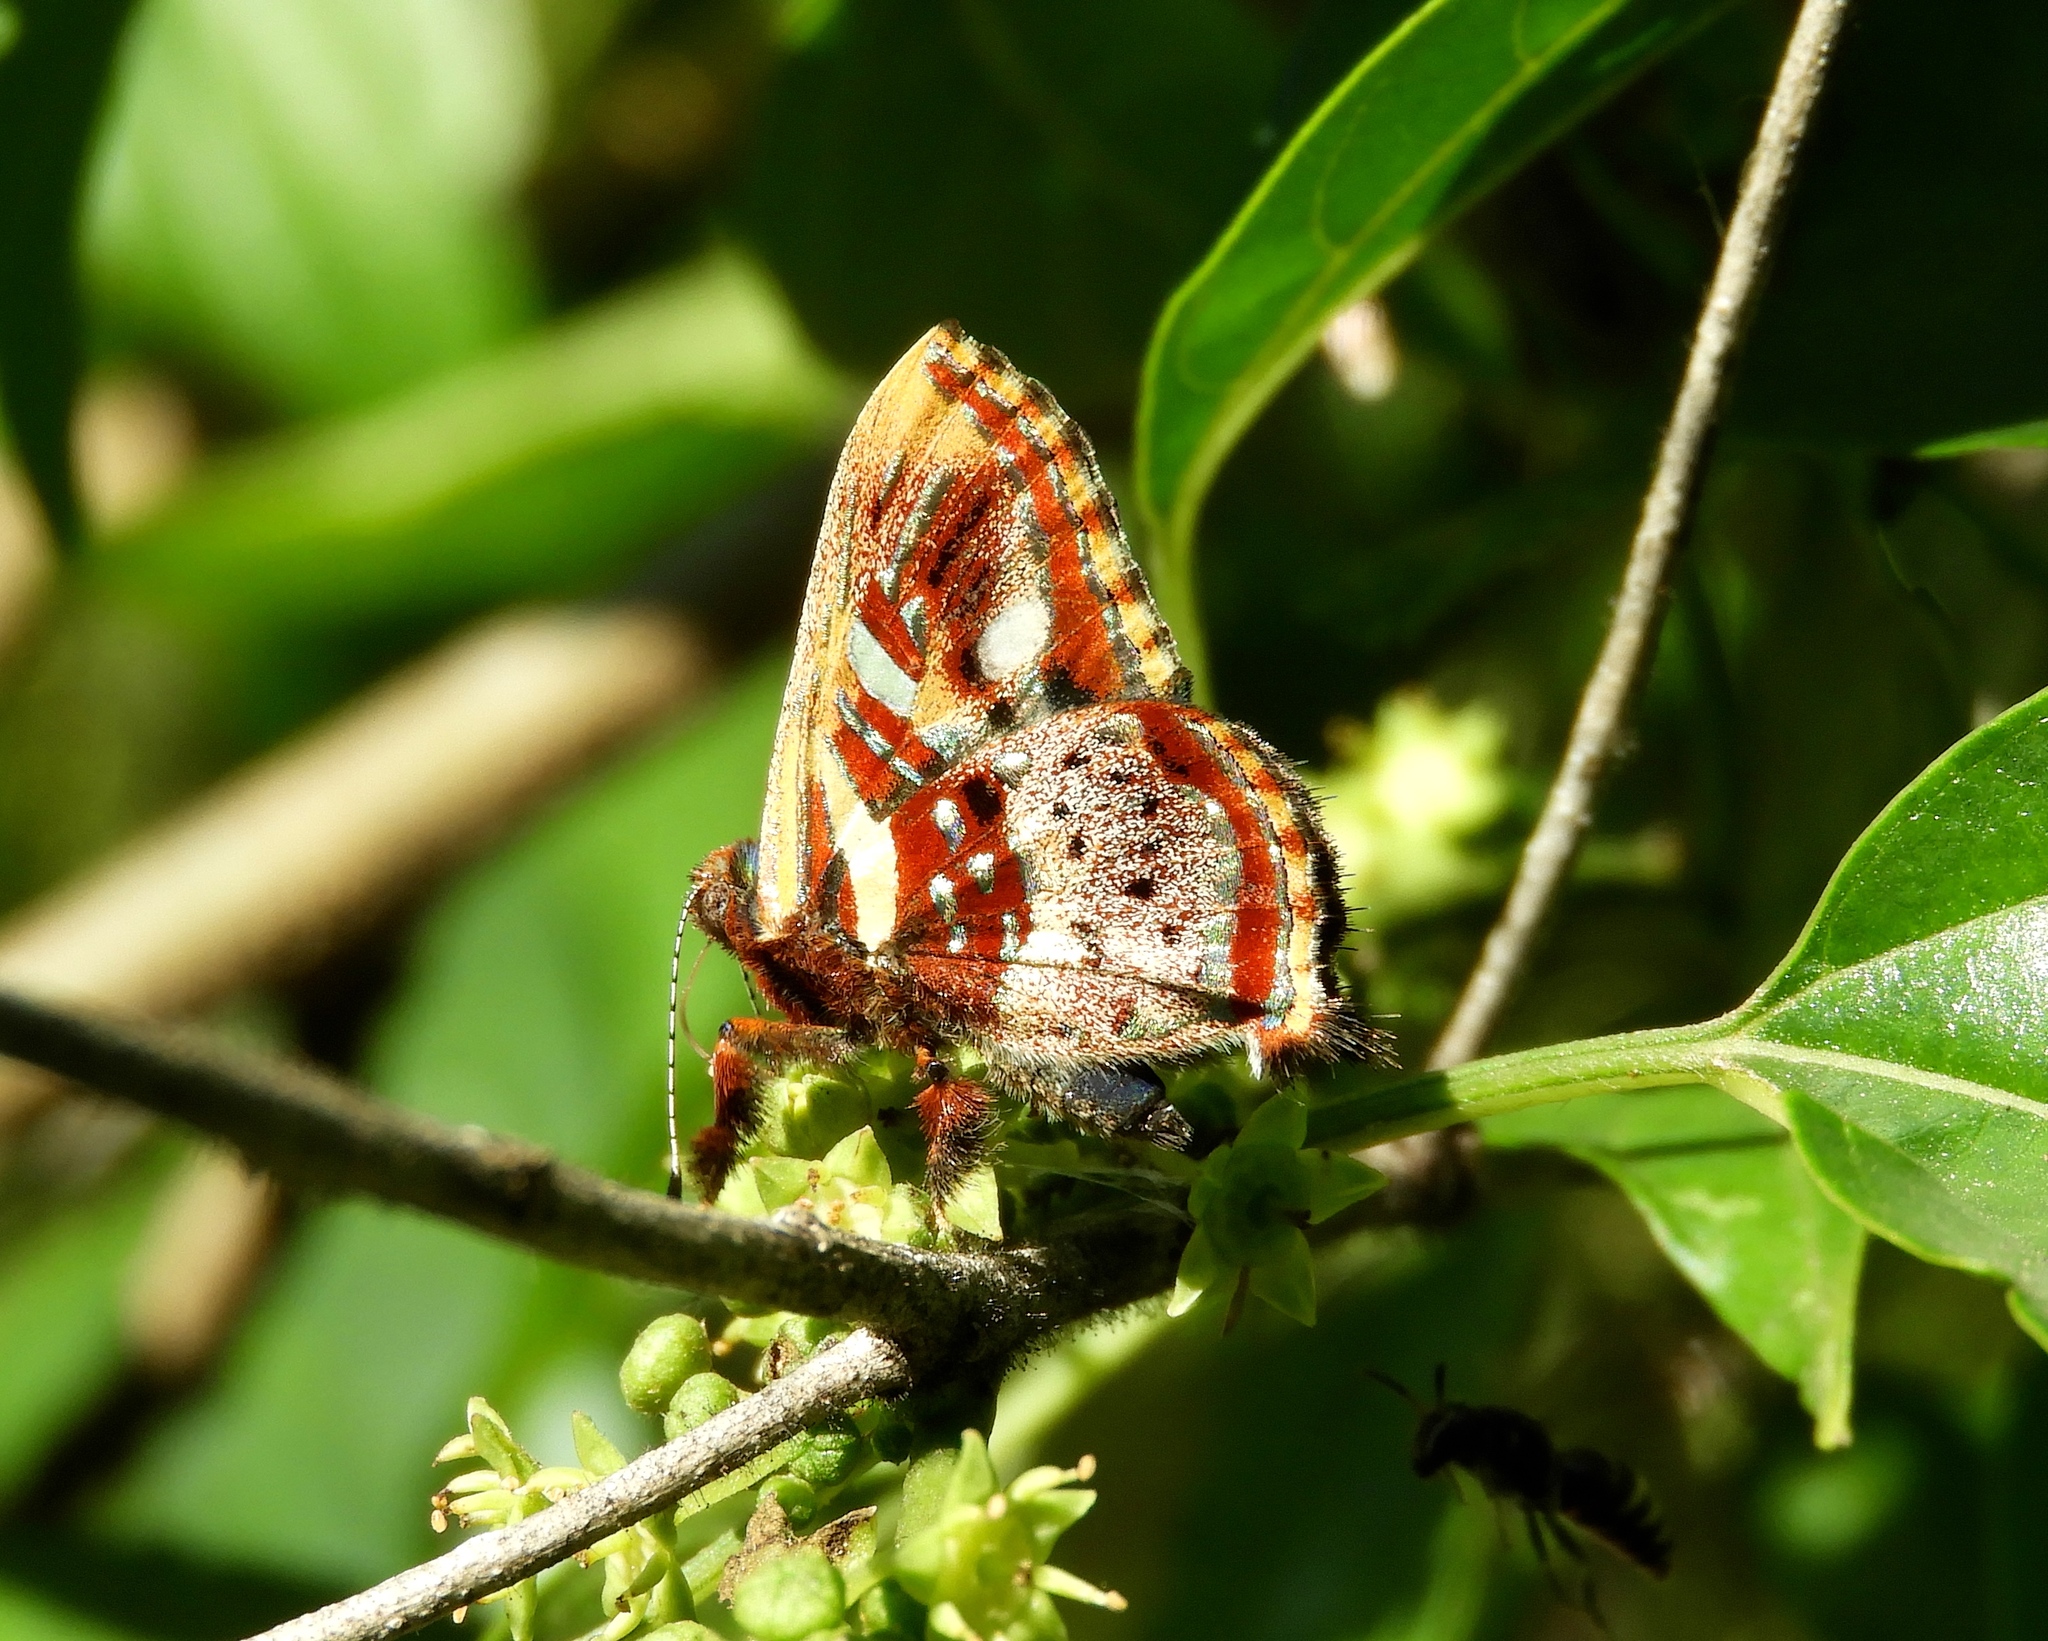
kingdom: Animalia
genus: Anteros
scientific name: Anteros carausius
